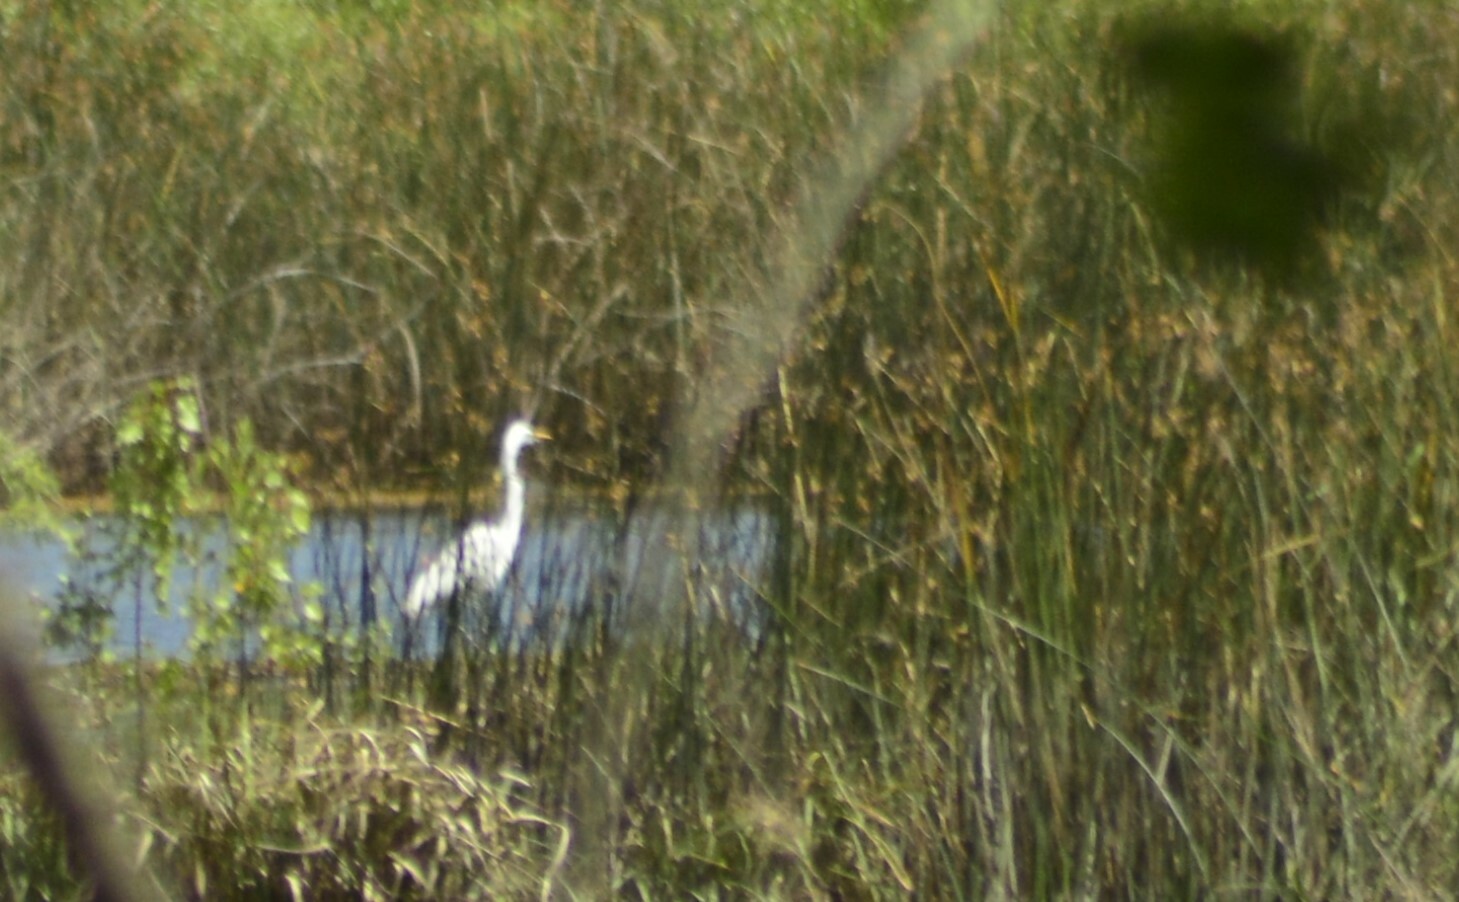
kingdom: Animalia
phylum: Chordata
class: Aves
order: Pelecaniformes
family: Ardeidae
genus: Ardea
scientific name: Ardea alba
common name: Great egret
